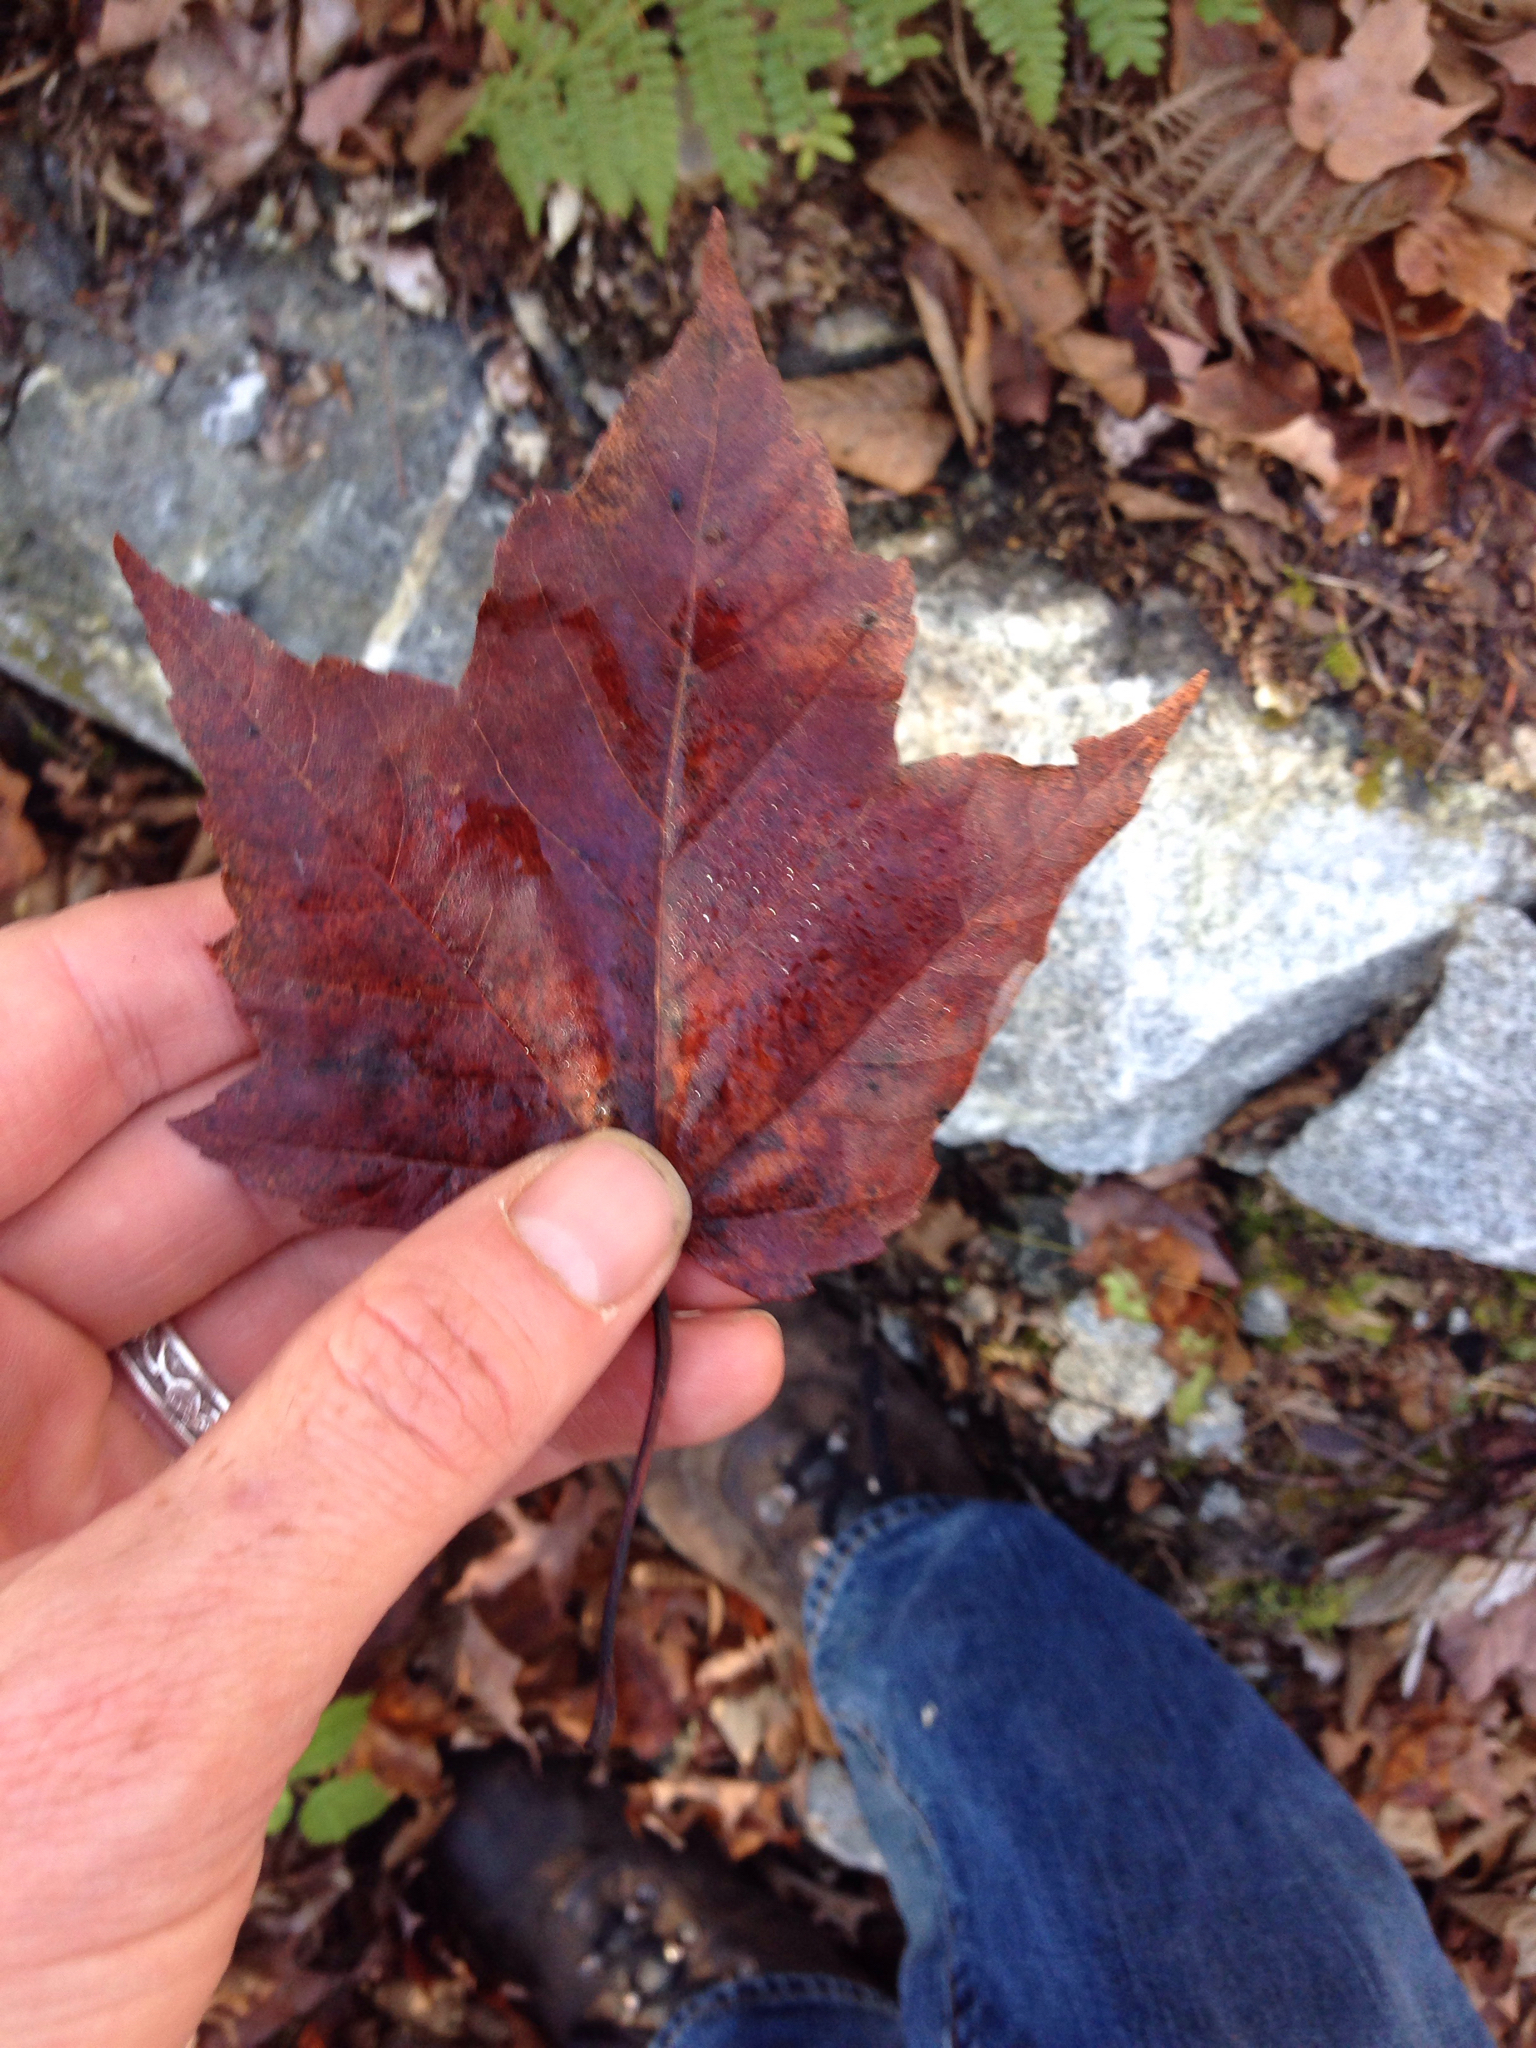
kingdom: Plantae
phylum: Tracheophyta
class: Magnoliopsida
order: Sapindales
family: Sapindaceae
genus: Acer
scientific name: Acer rubrum
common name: Red maple
